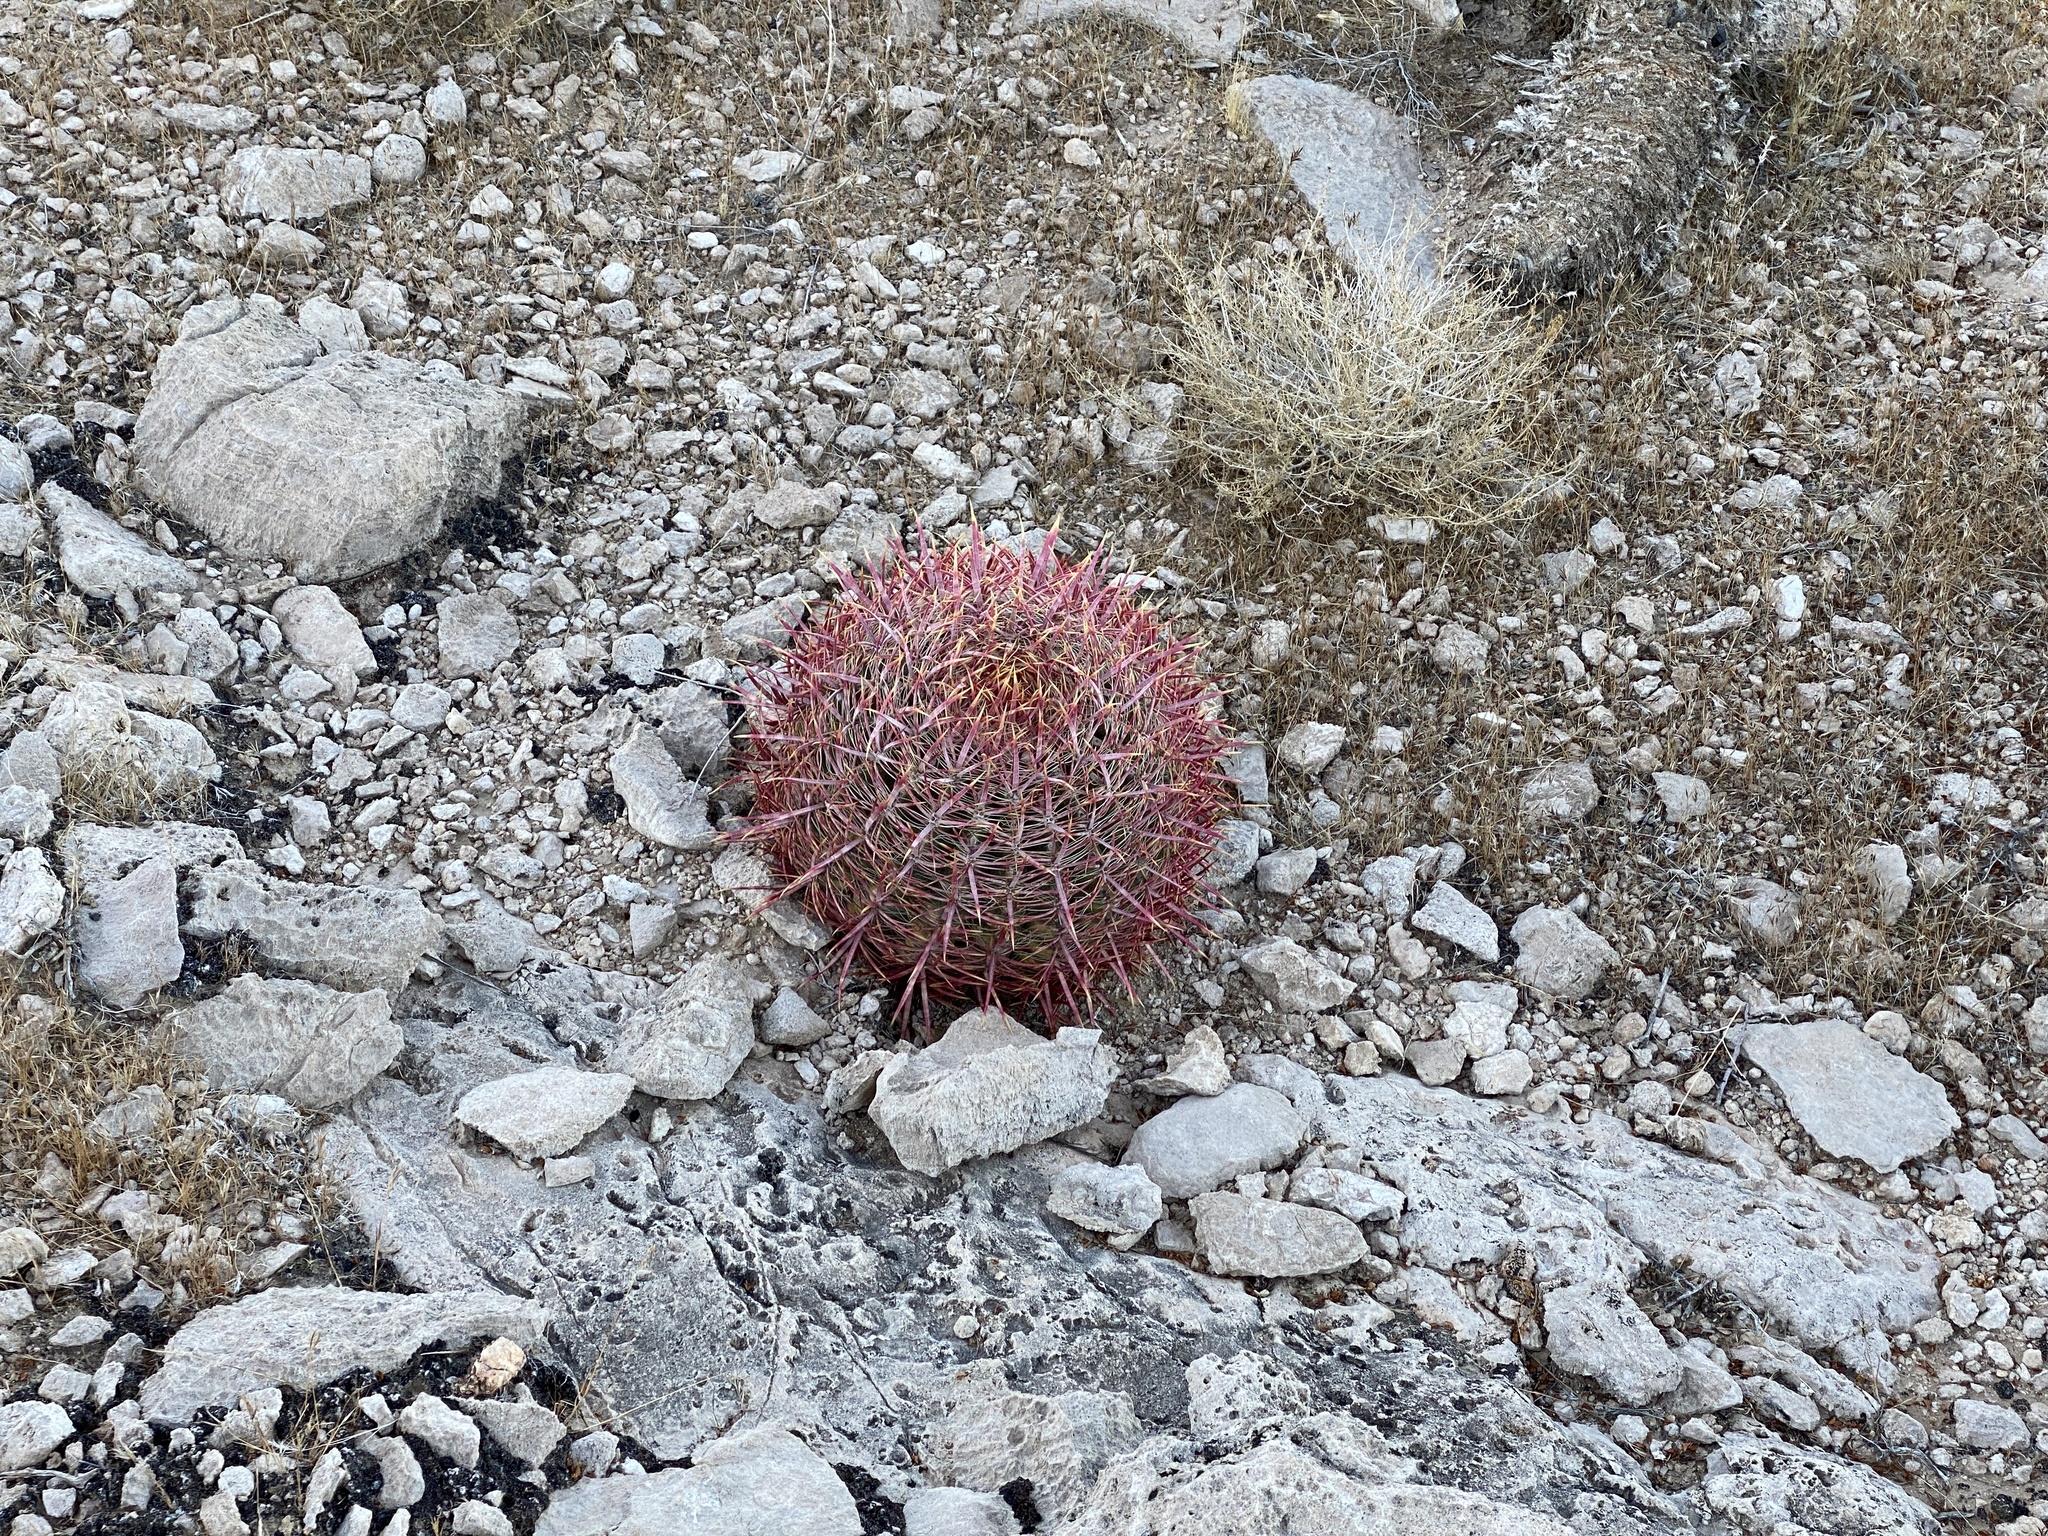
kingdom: Plantae
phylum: Tracheophyta
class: Magnoliopsida
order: Caryophyllales
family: Cactaceae
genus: Ferocactus
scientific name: Ferocactus cylindraceus
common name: California barrel cactus
